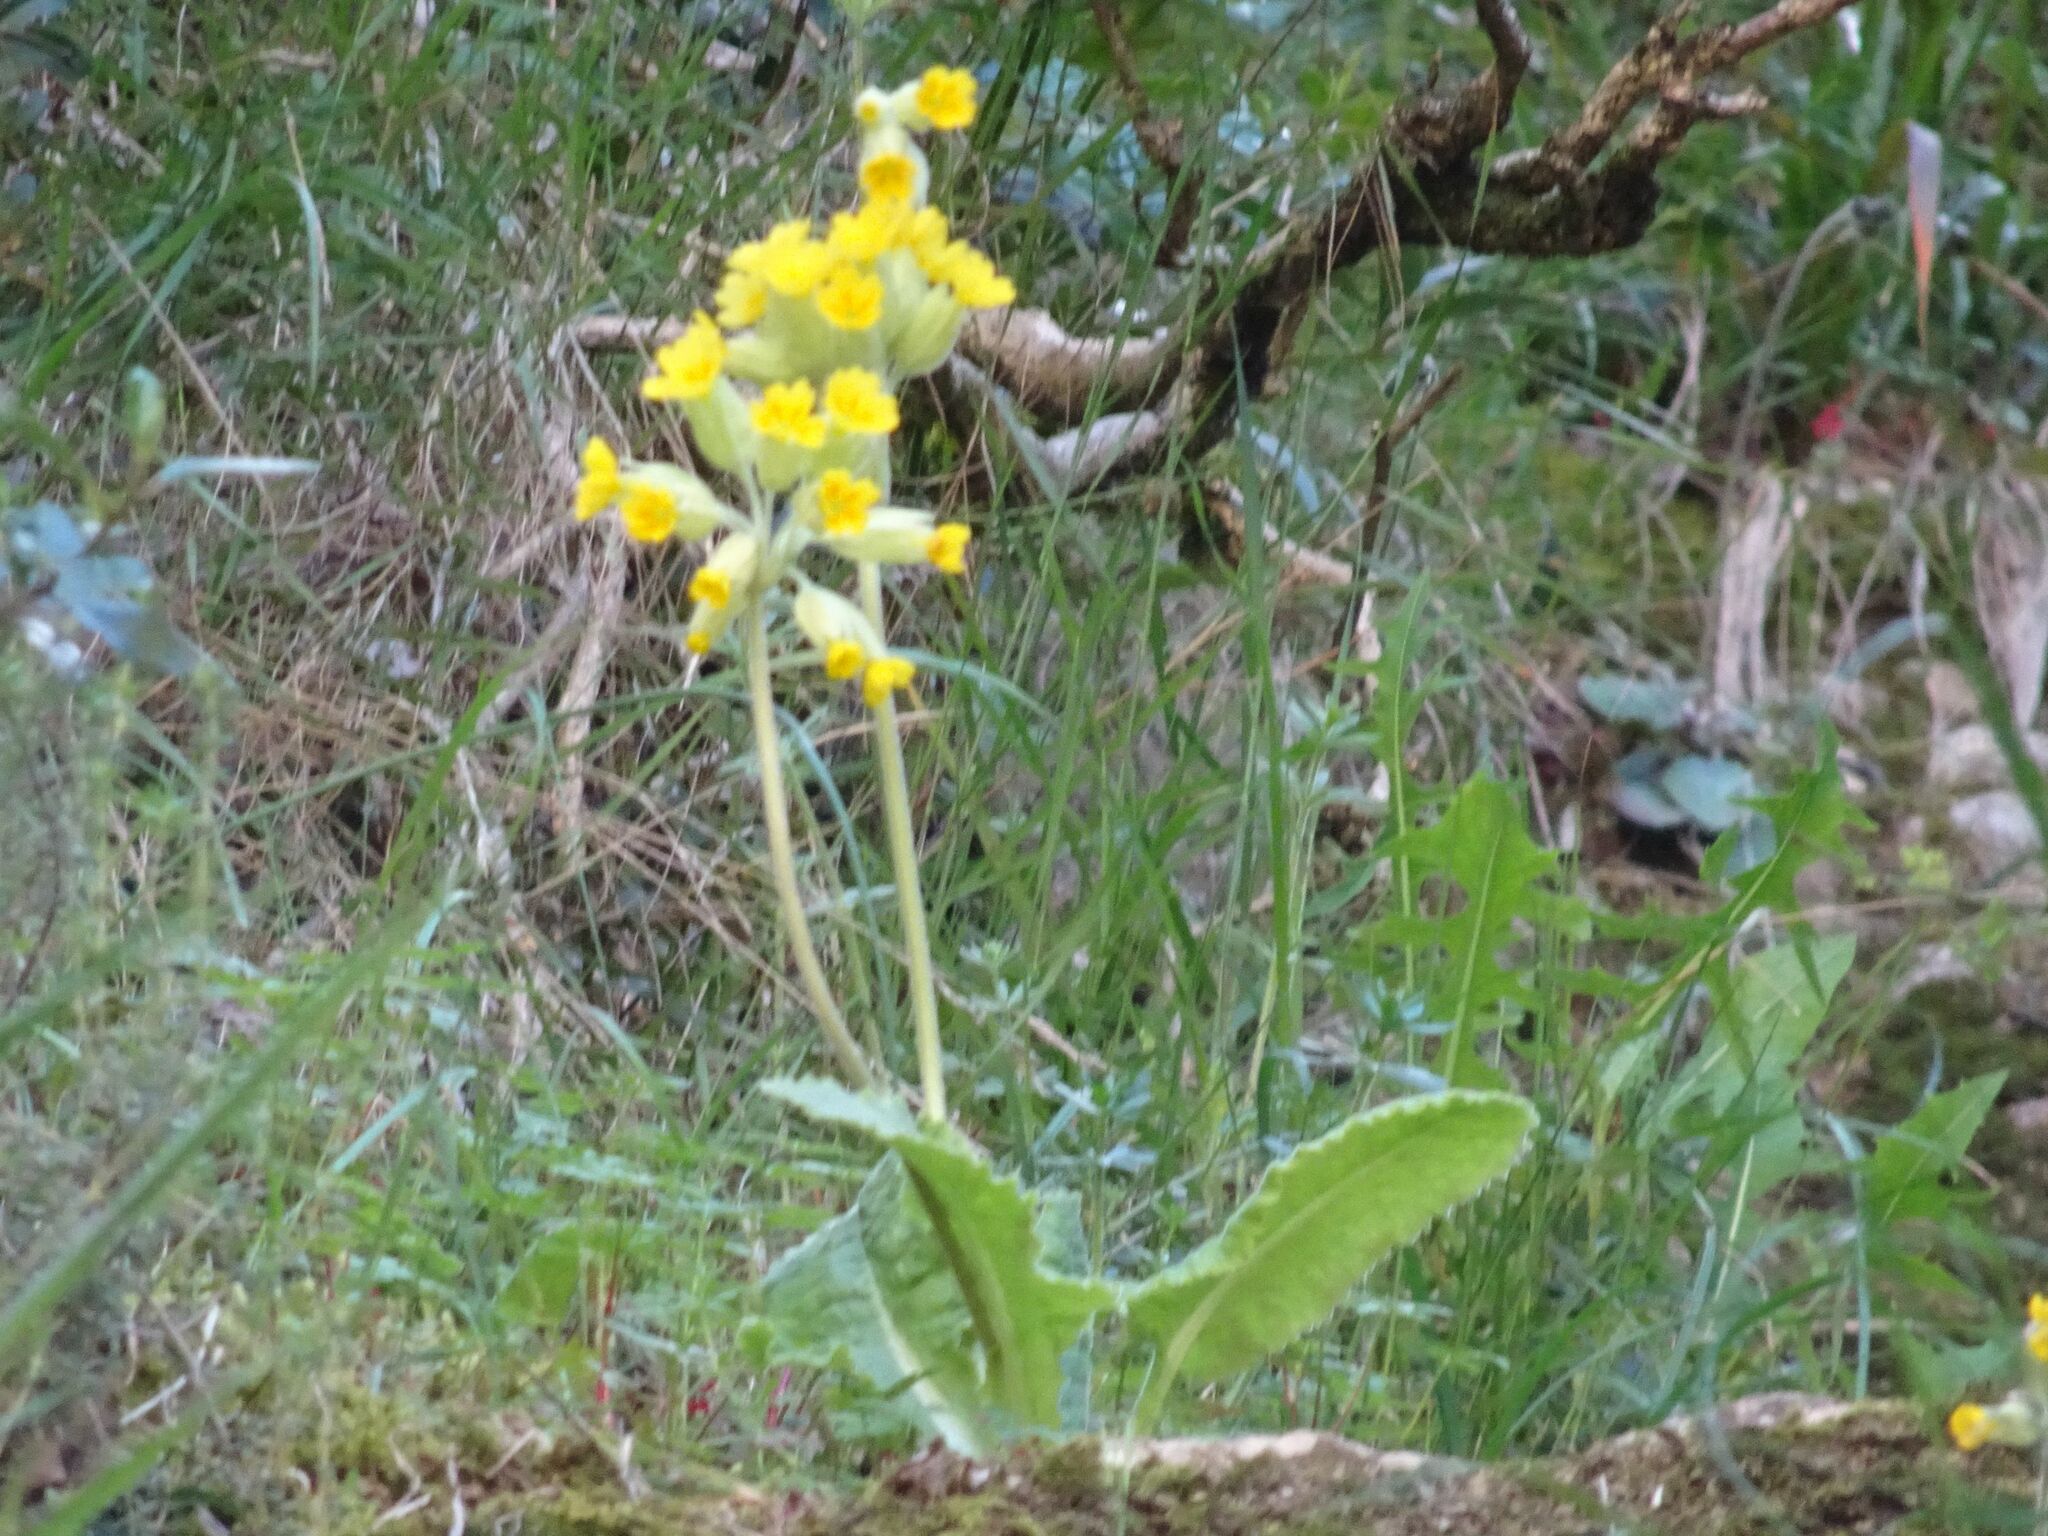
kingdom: Plantae
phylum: Tracheophyta
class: Magnoliopsida
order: Ericales
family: Primulaceae
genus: Primula
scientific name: Primula veris
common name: Cowslip
